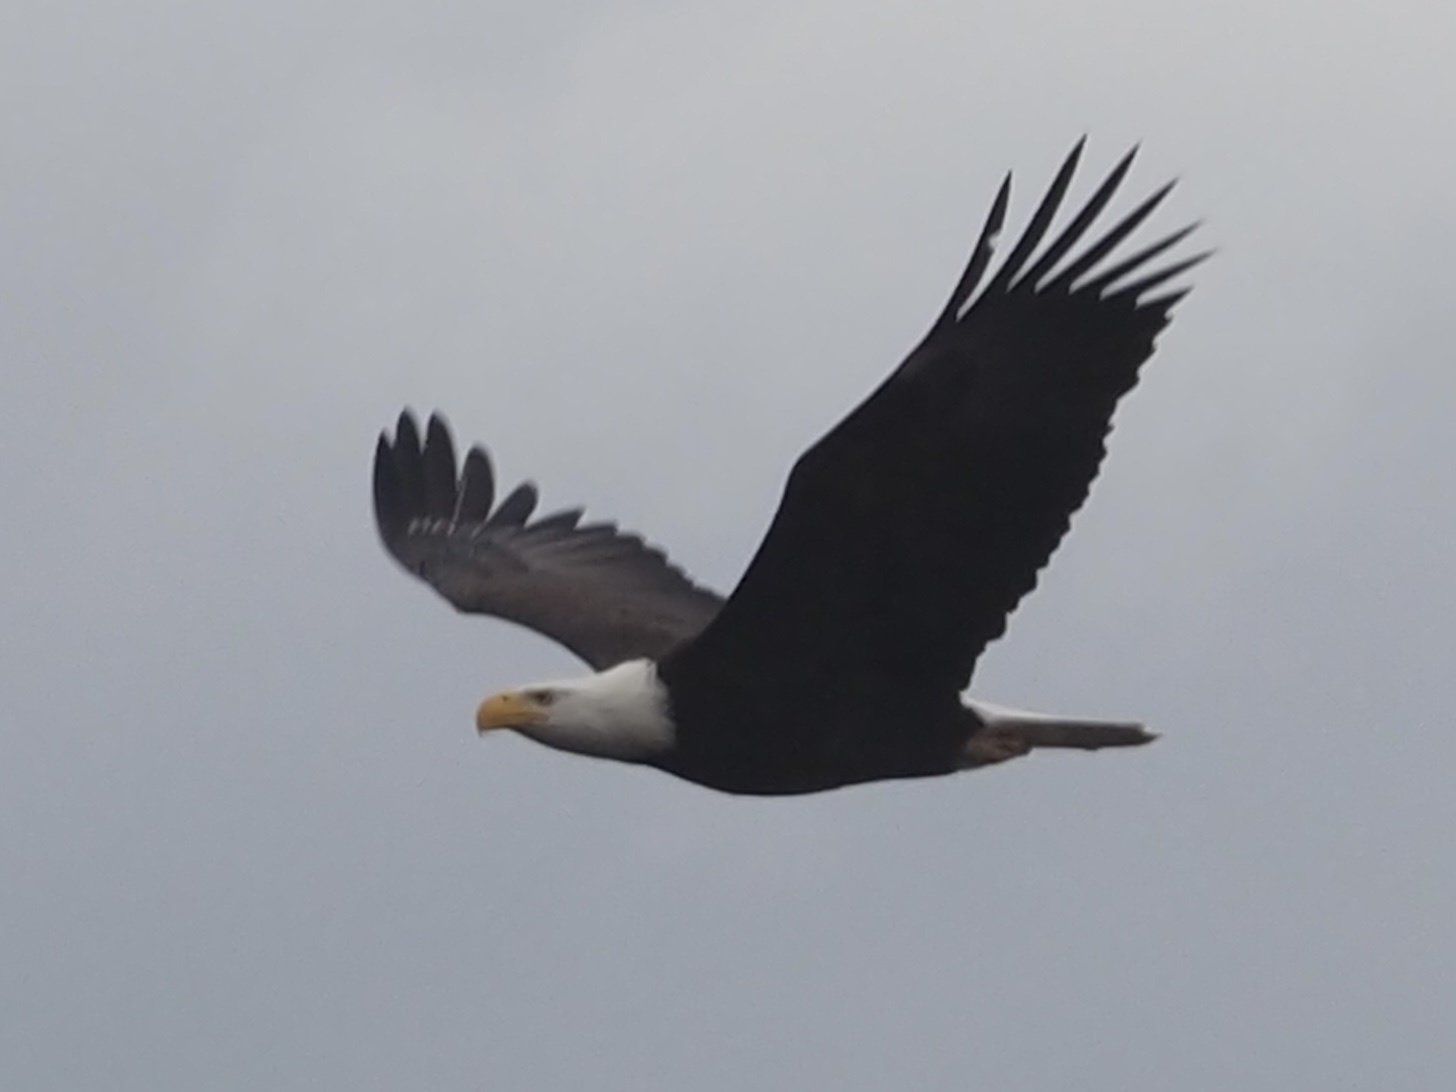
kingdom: Animalia
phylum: Chordata
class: Aves
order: Accipitriformes
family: Accipitridae
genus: Haliaeetus
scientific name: Haliaeetus leucocephalus
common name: Bald eagle
